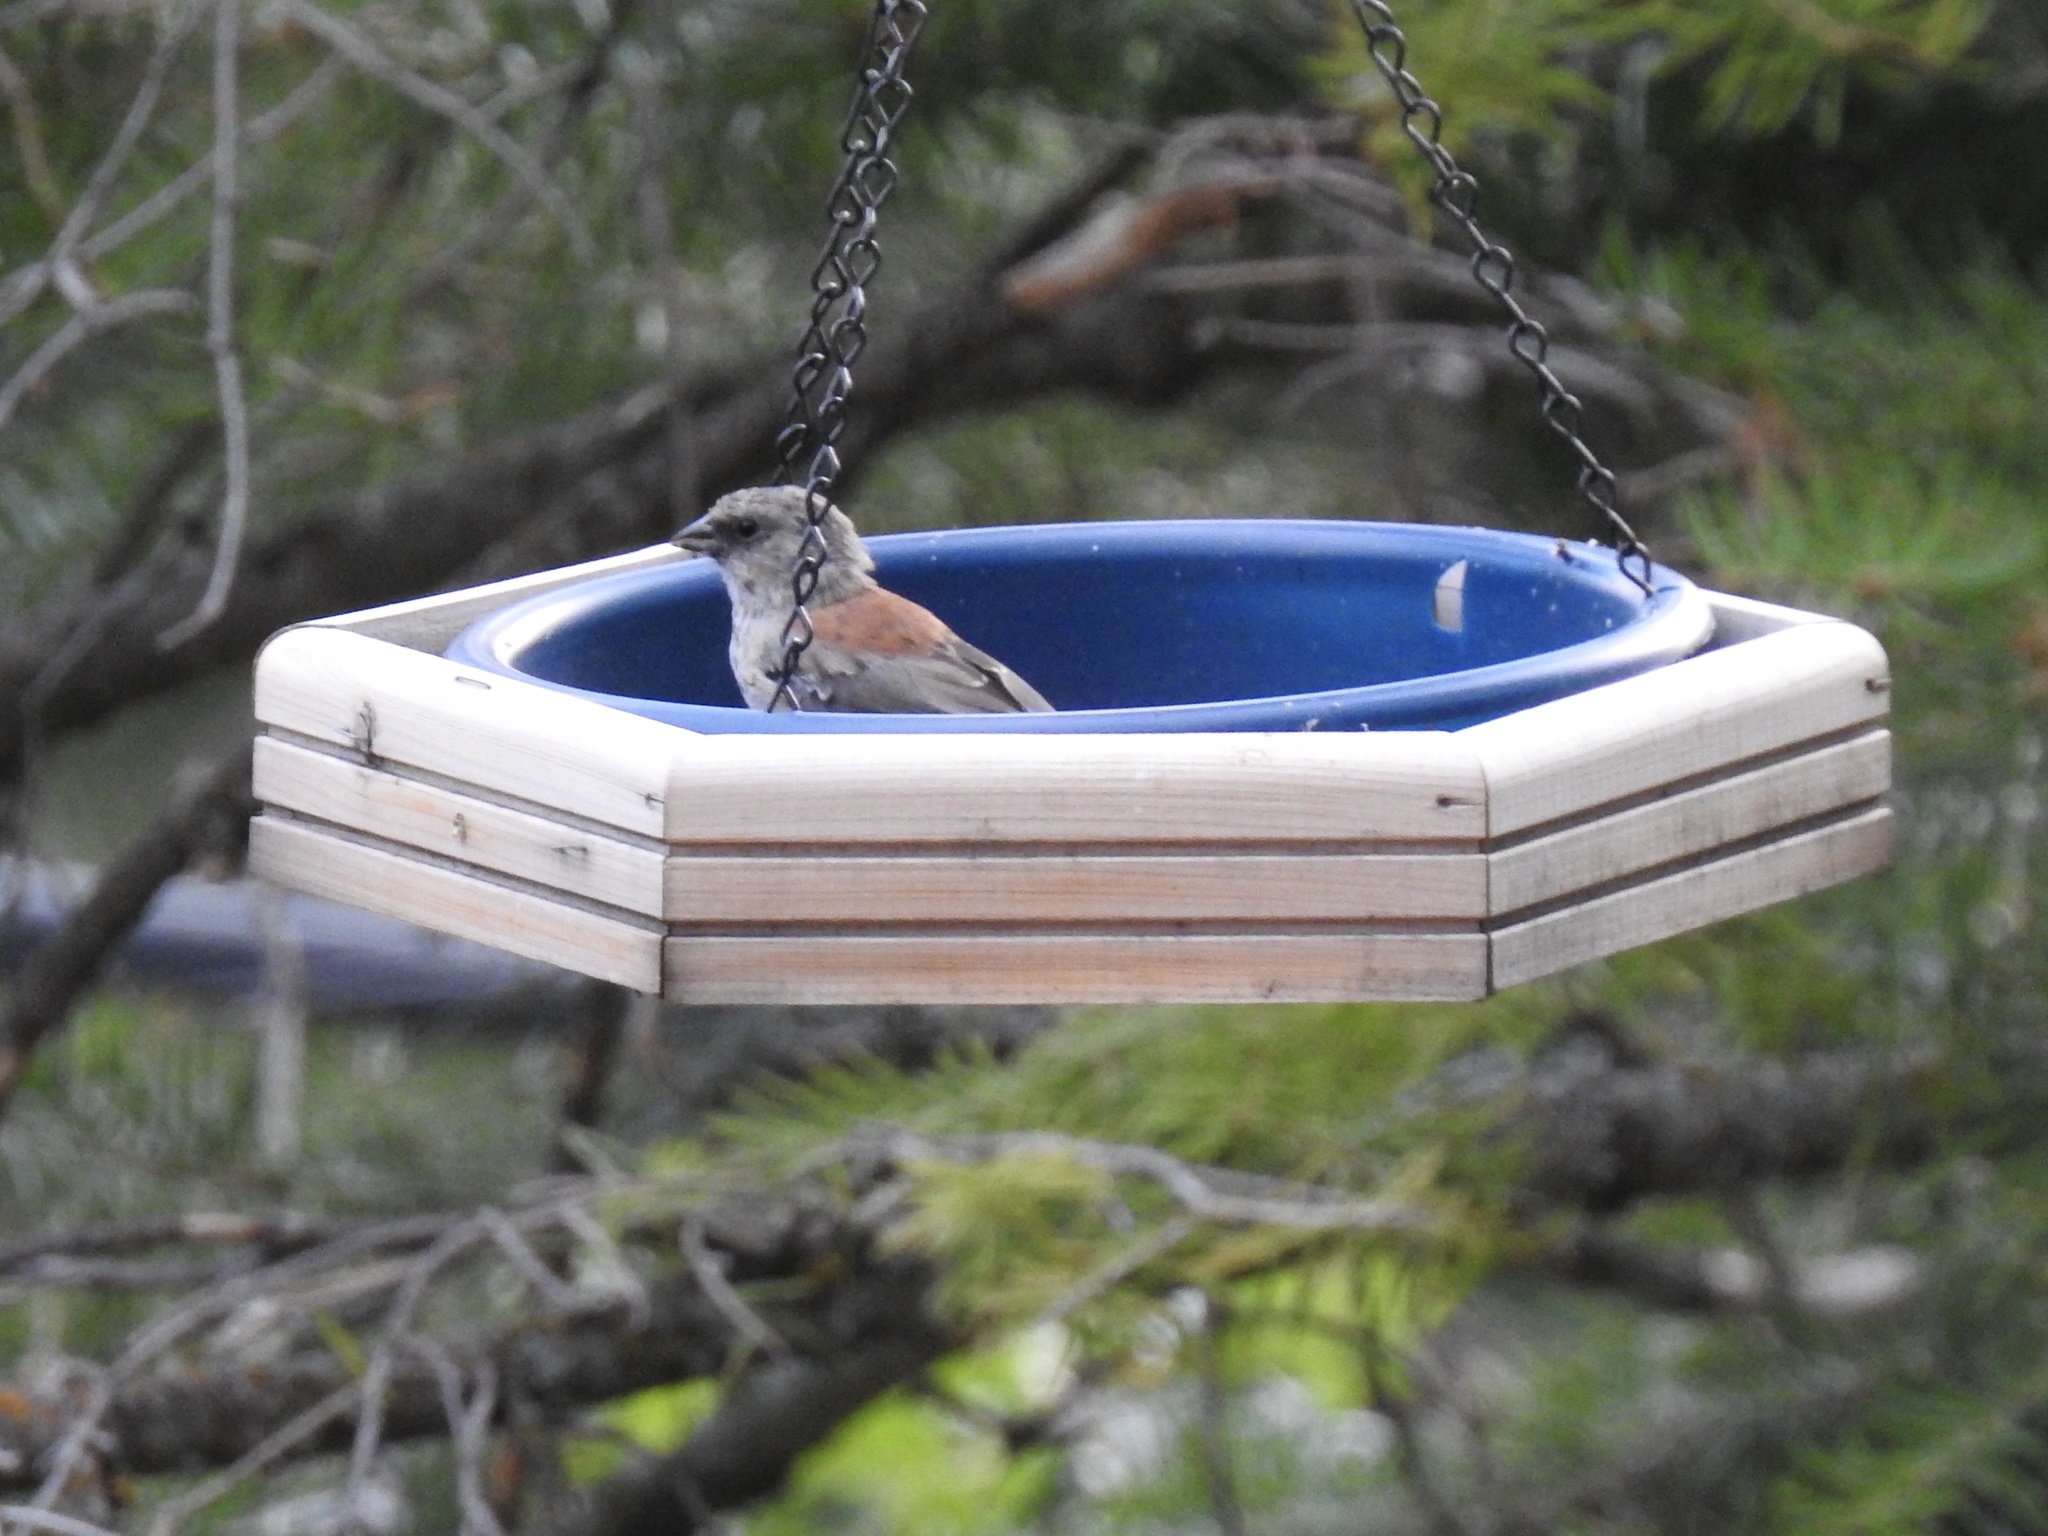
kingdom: Animalia
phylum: Chordata
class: Aves
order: Passeriformes
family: Passerellidae
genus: Junco
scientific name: Junco hyemalis
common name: Dark-eyed junco
